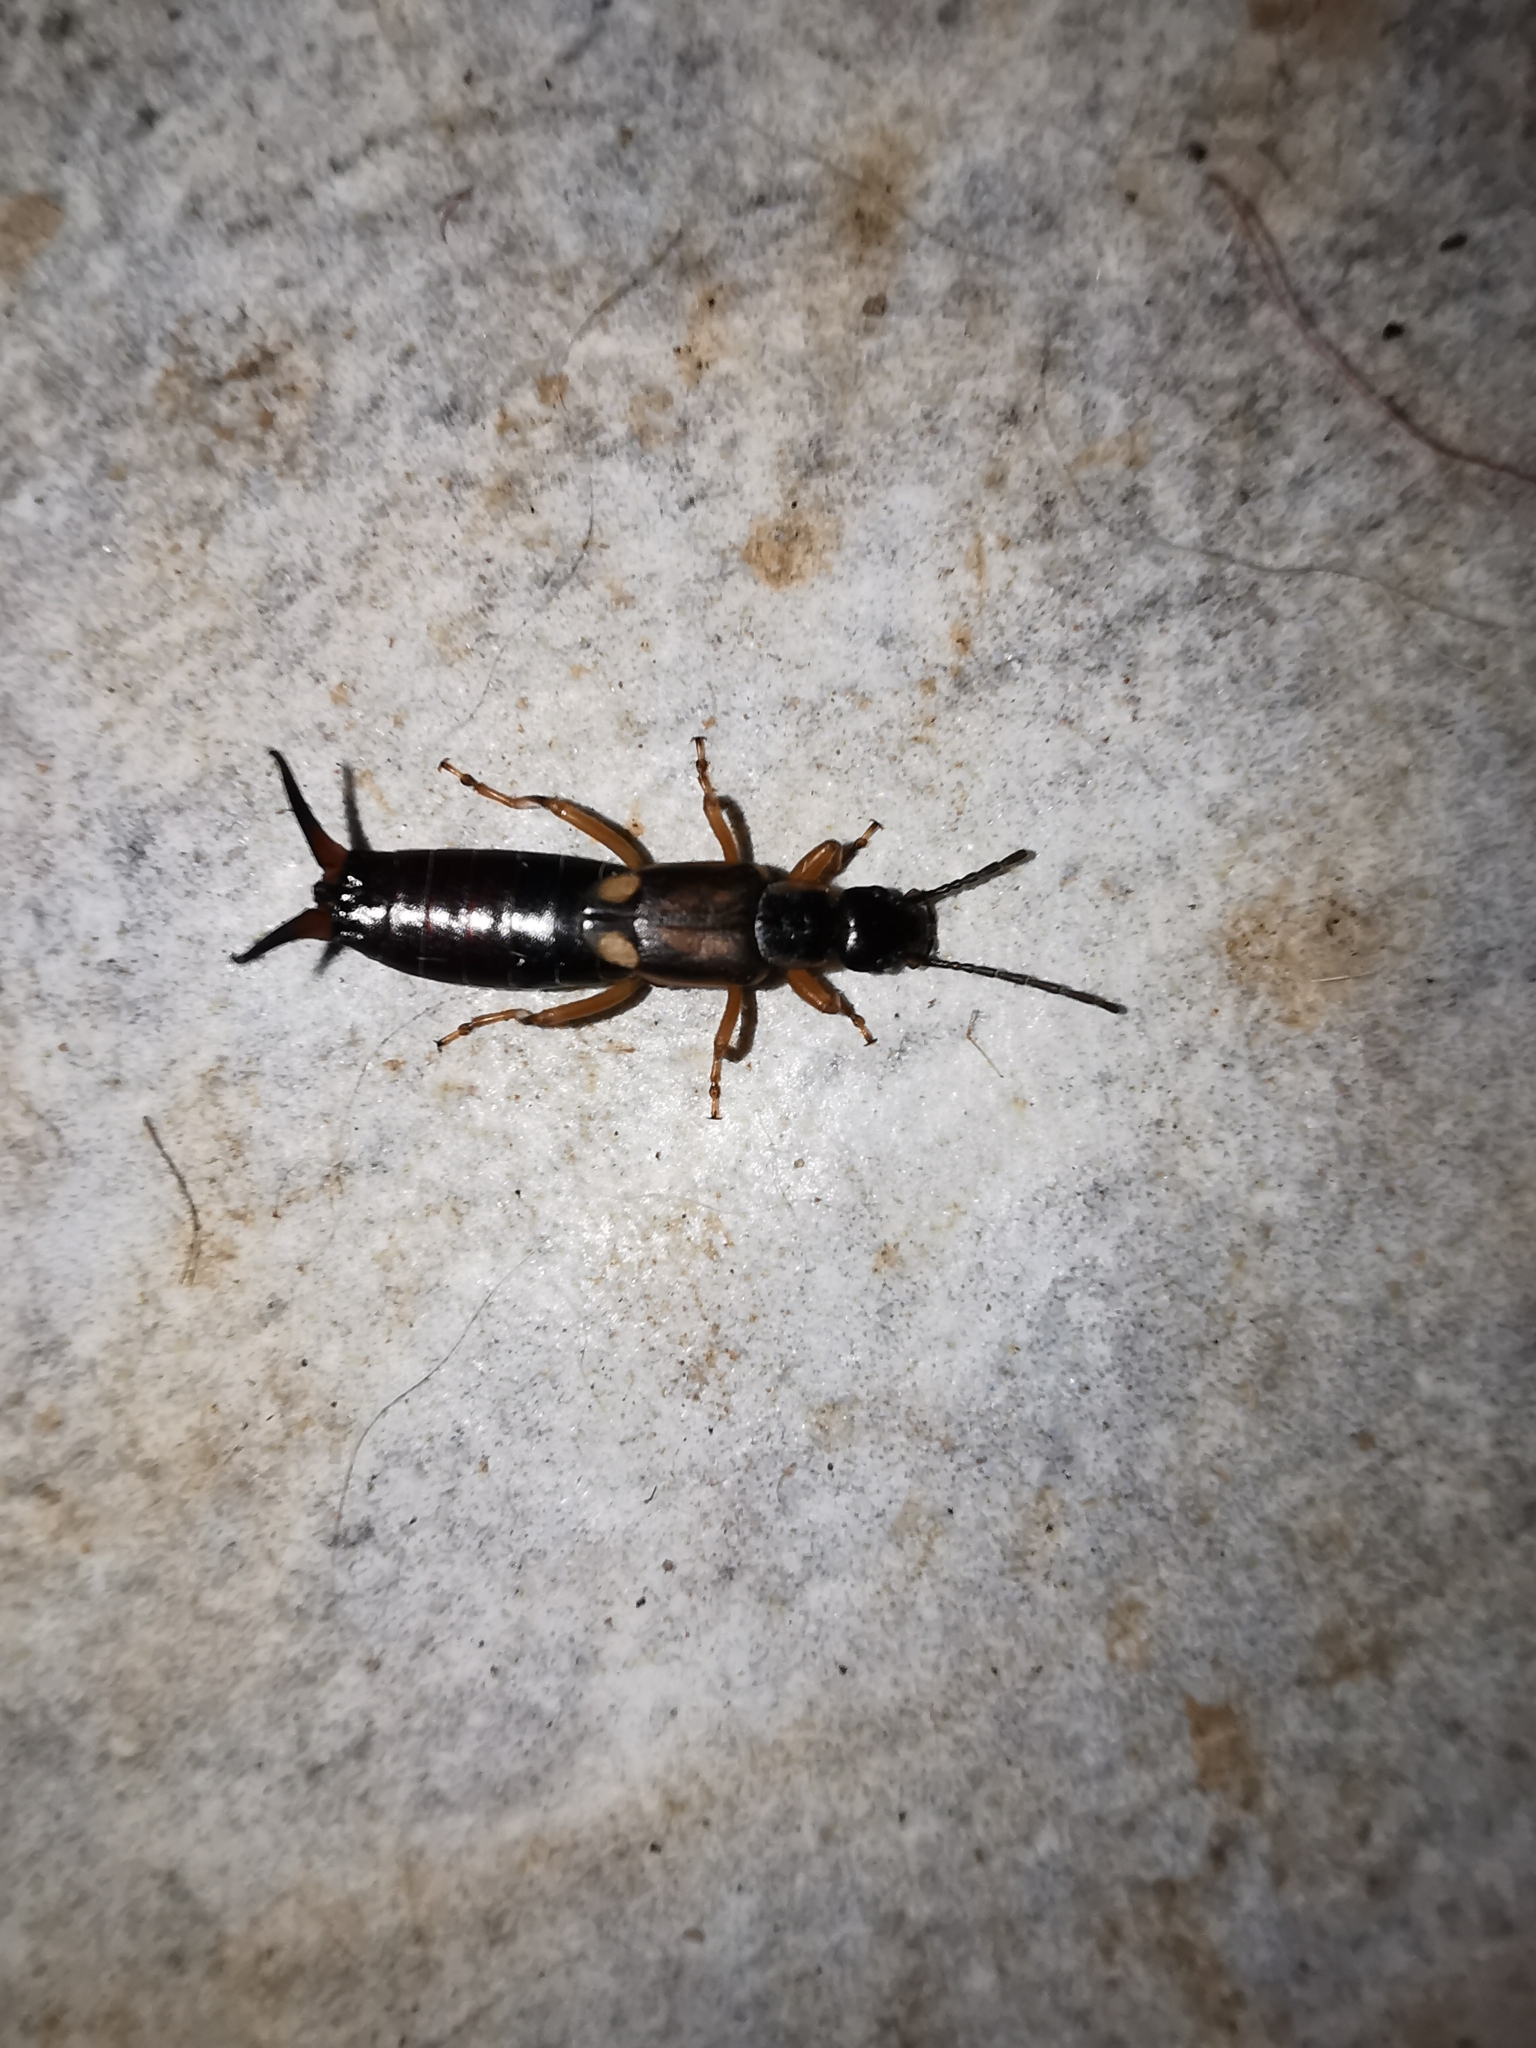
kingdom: Animalia
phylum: Arthropoda
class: Insecta
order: Dermaptera
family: Forficulidae
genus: Forficula
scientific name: Forficula
